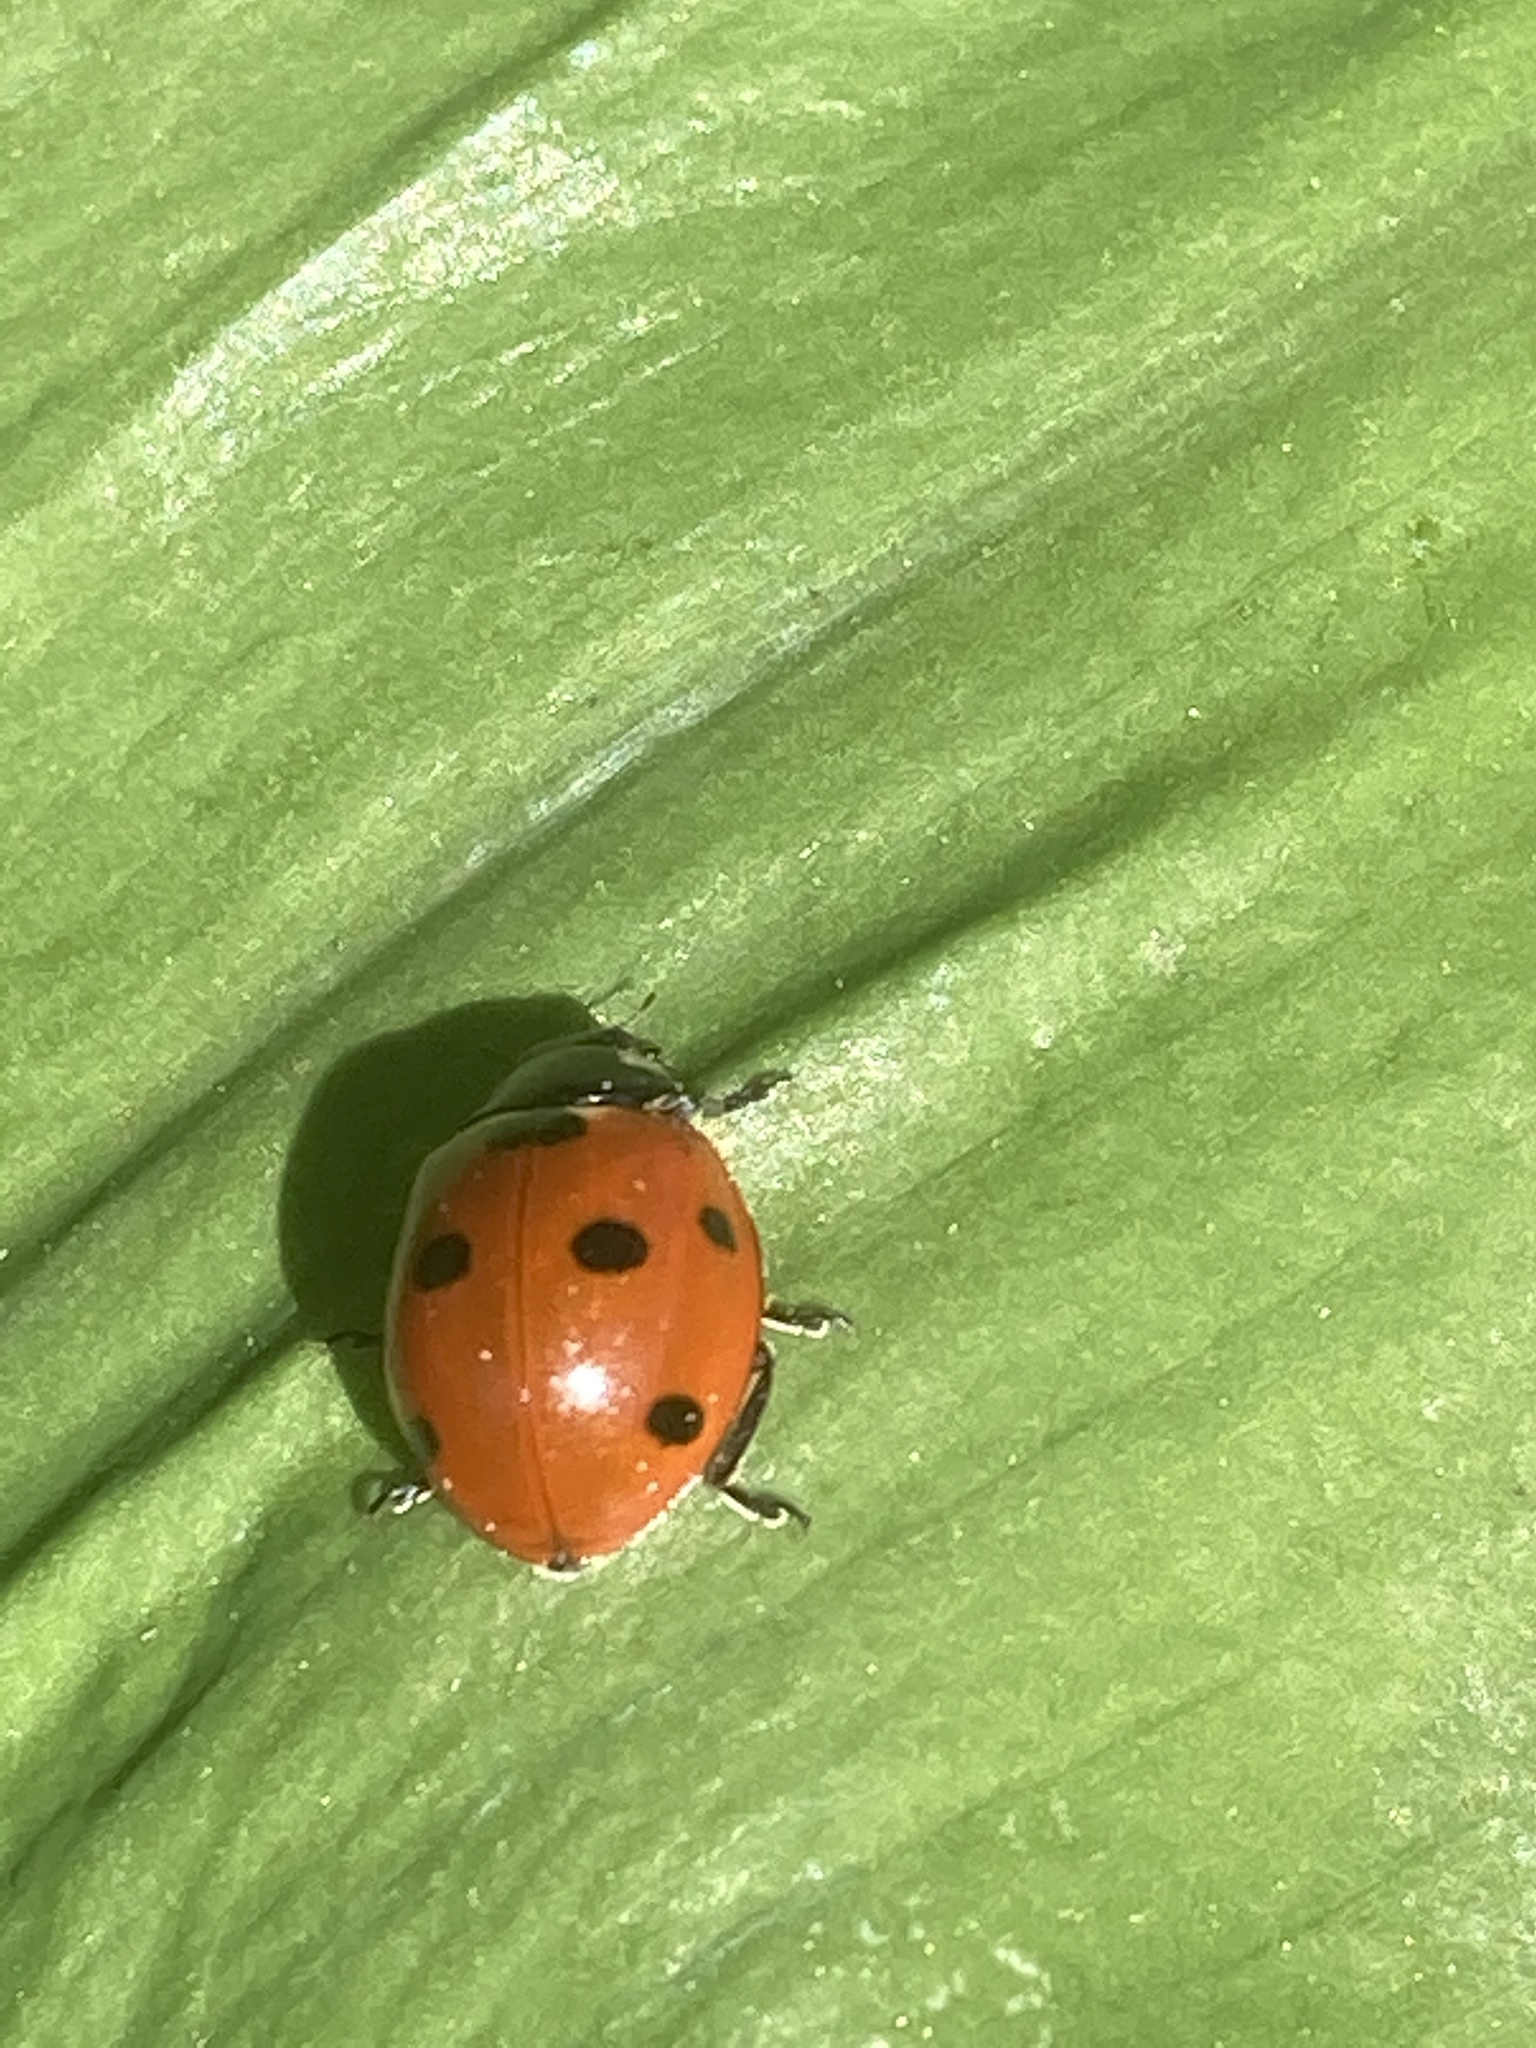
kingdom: Animalia
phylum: Arthropoda
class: Insecta
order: Coleoptera
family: Coccinellidae
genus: Coccinella
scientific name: Coccinella septempunctata
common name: Sevenspotted lady beetle
